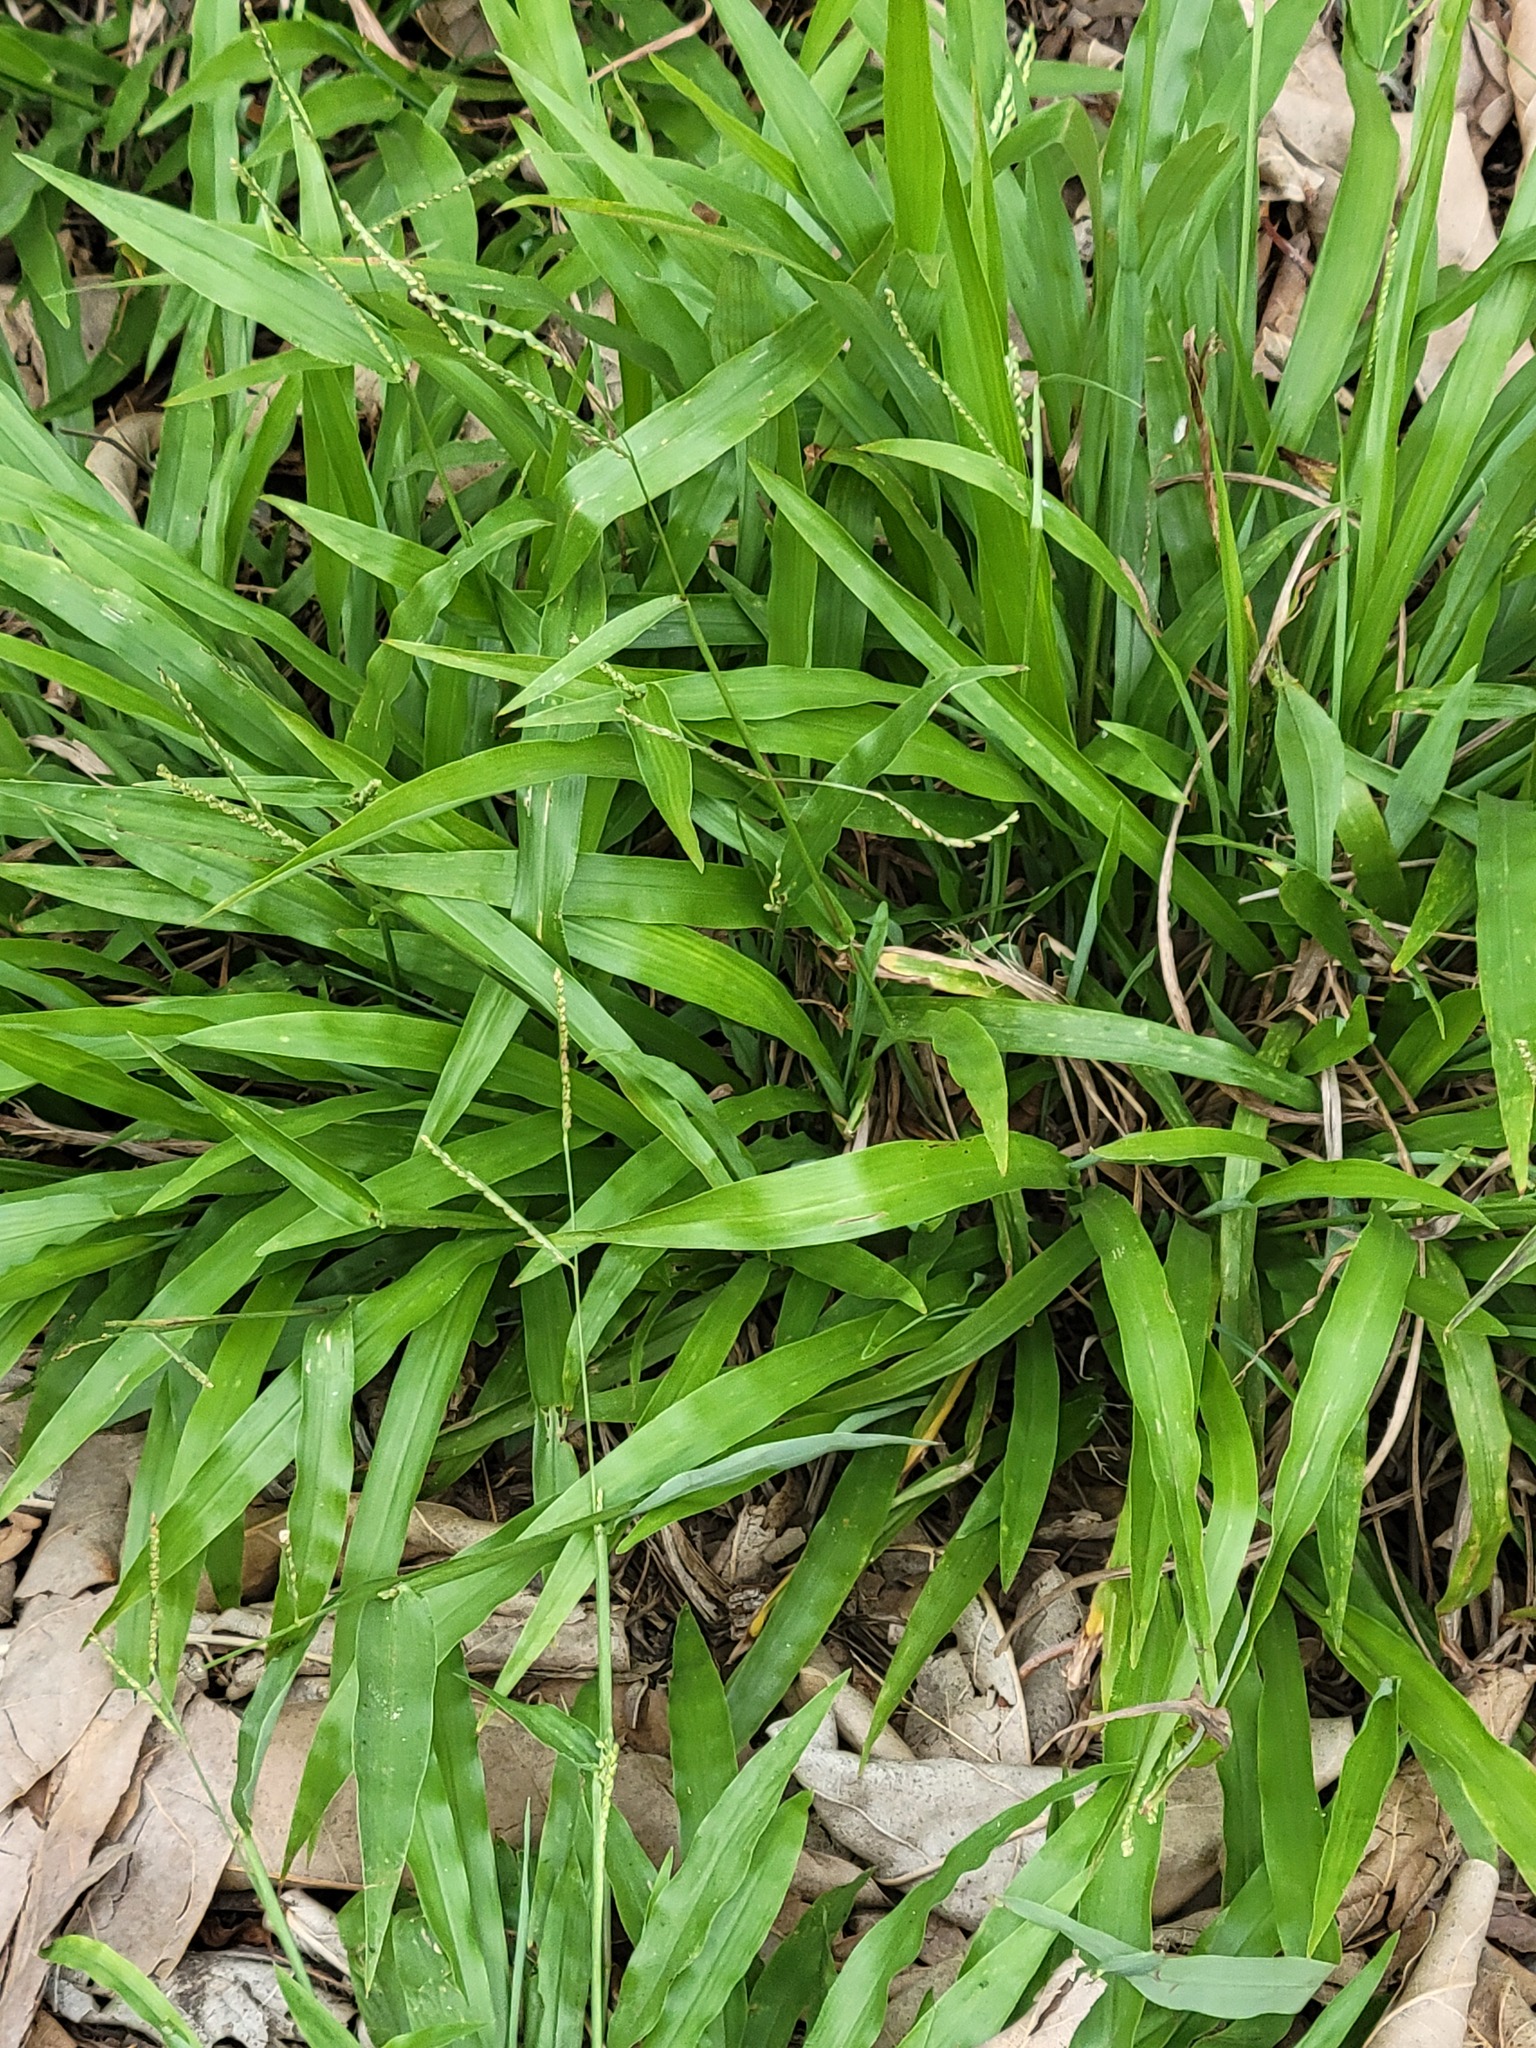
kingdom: Plantae
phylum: Tracheophyta
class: Liliopsida
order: Poales
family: Poaceae
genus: Paspalum
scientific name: Paspalum langei
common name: Rusty-seed paspalum
